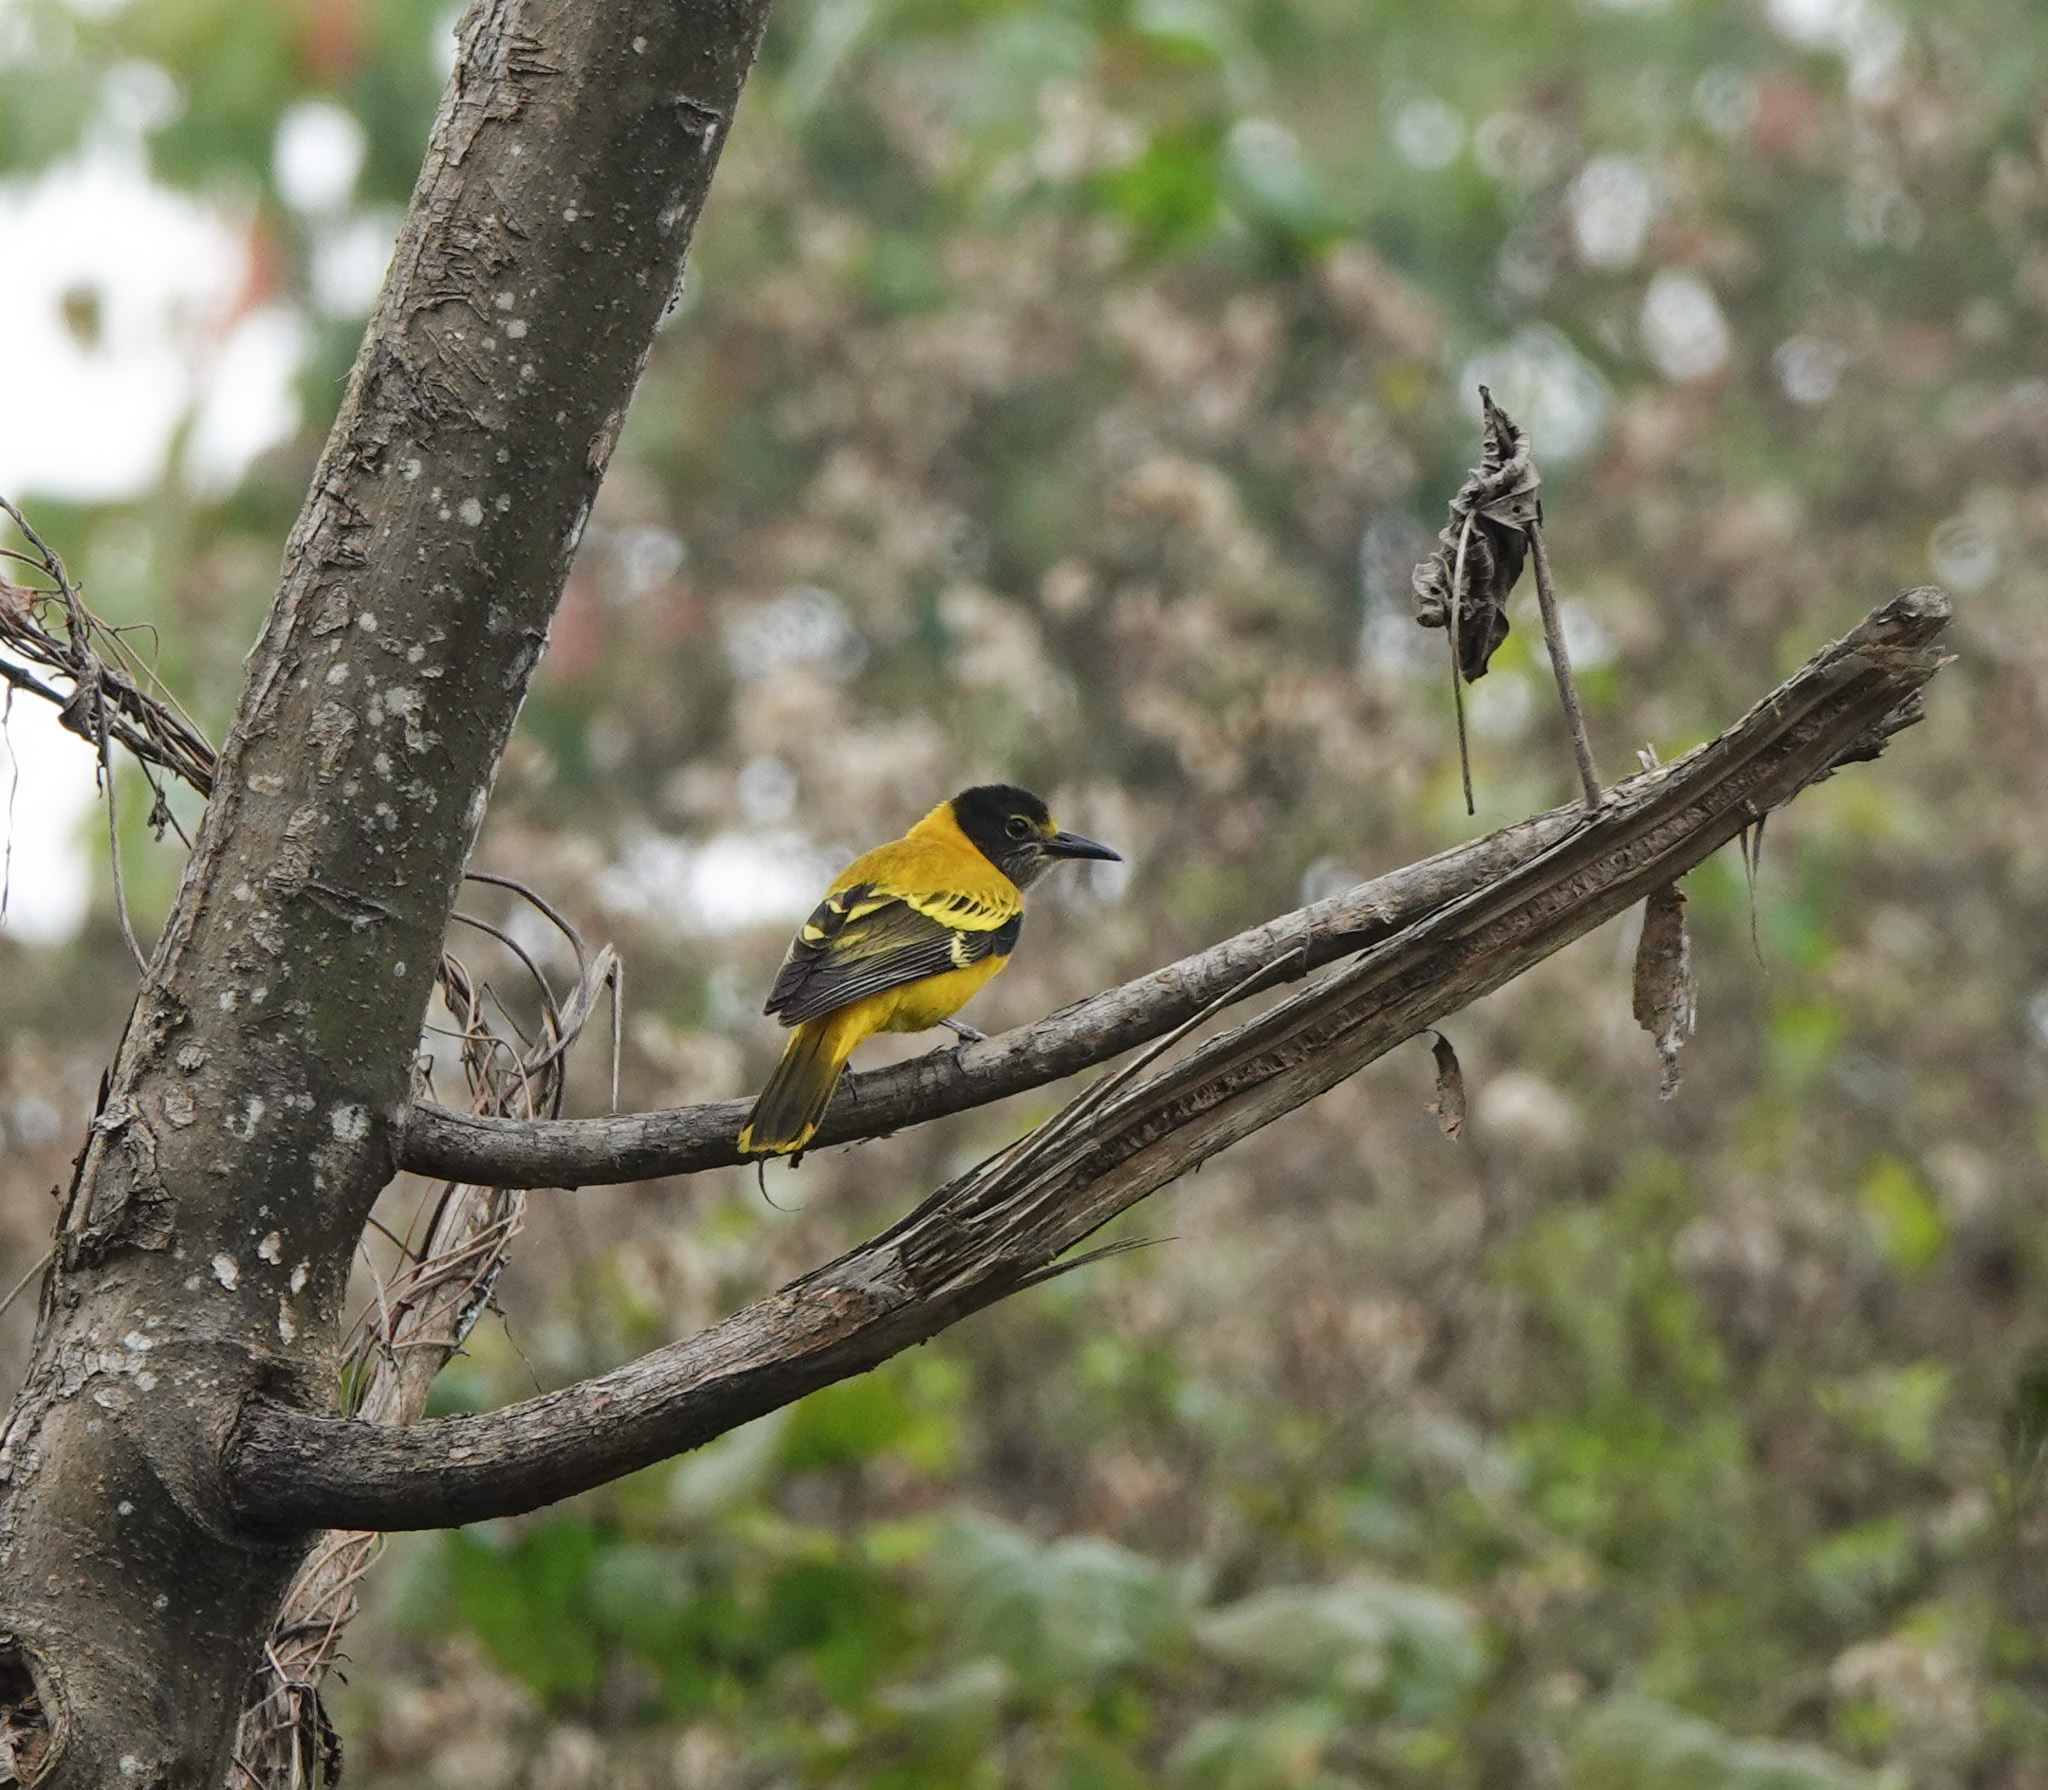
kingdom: Animalia
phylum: Chordata
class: Aves
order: Passeriformes
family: Oriolidae
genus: Oriolus
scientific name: Oriolus xanthornus
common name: Black-hooded oriole
